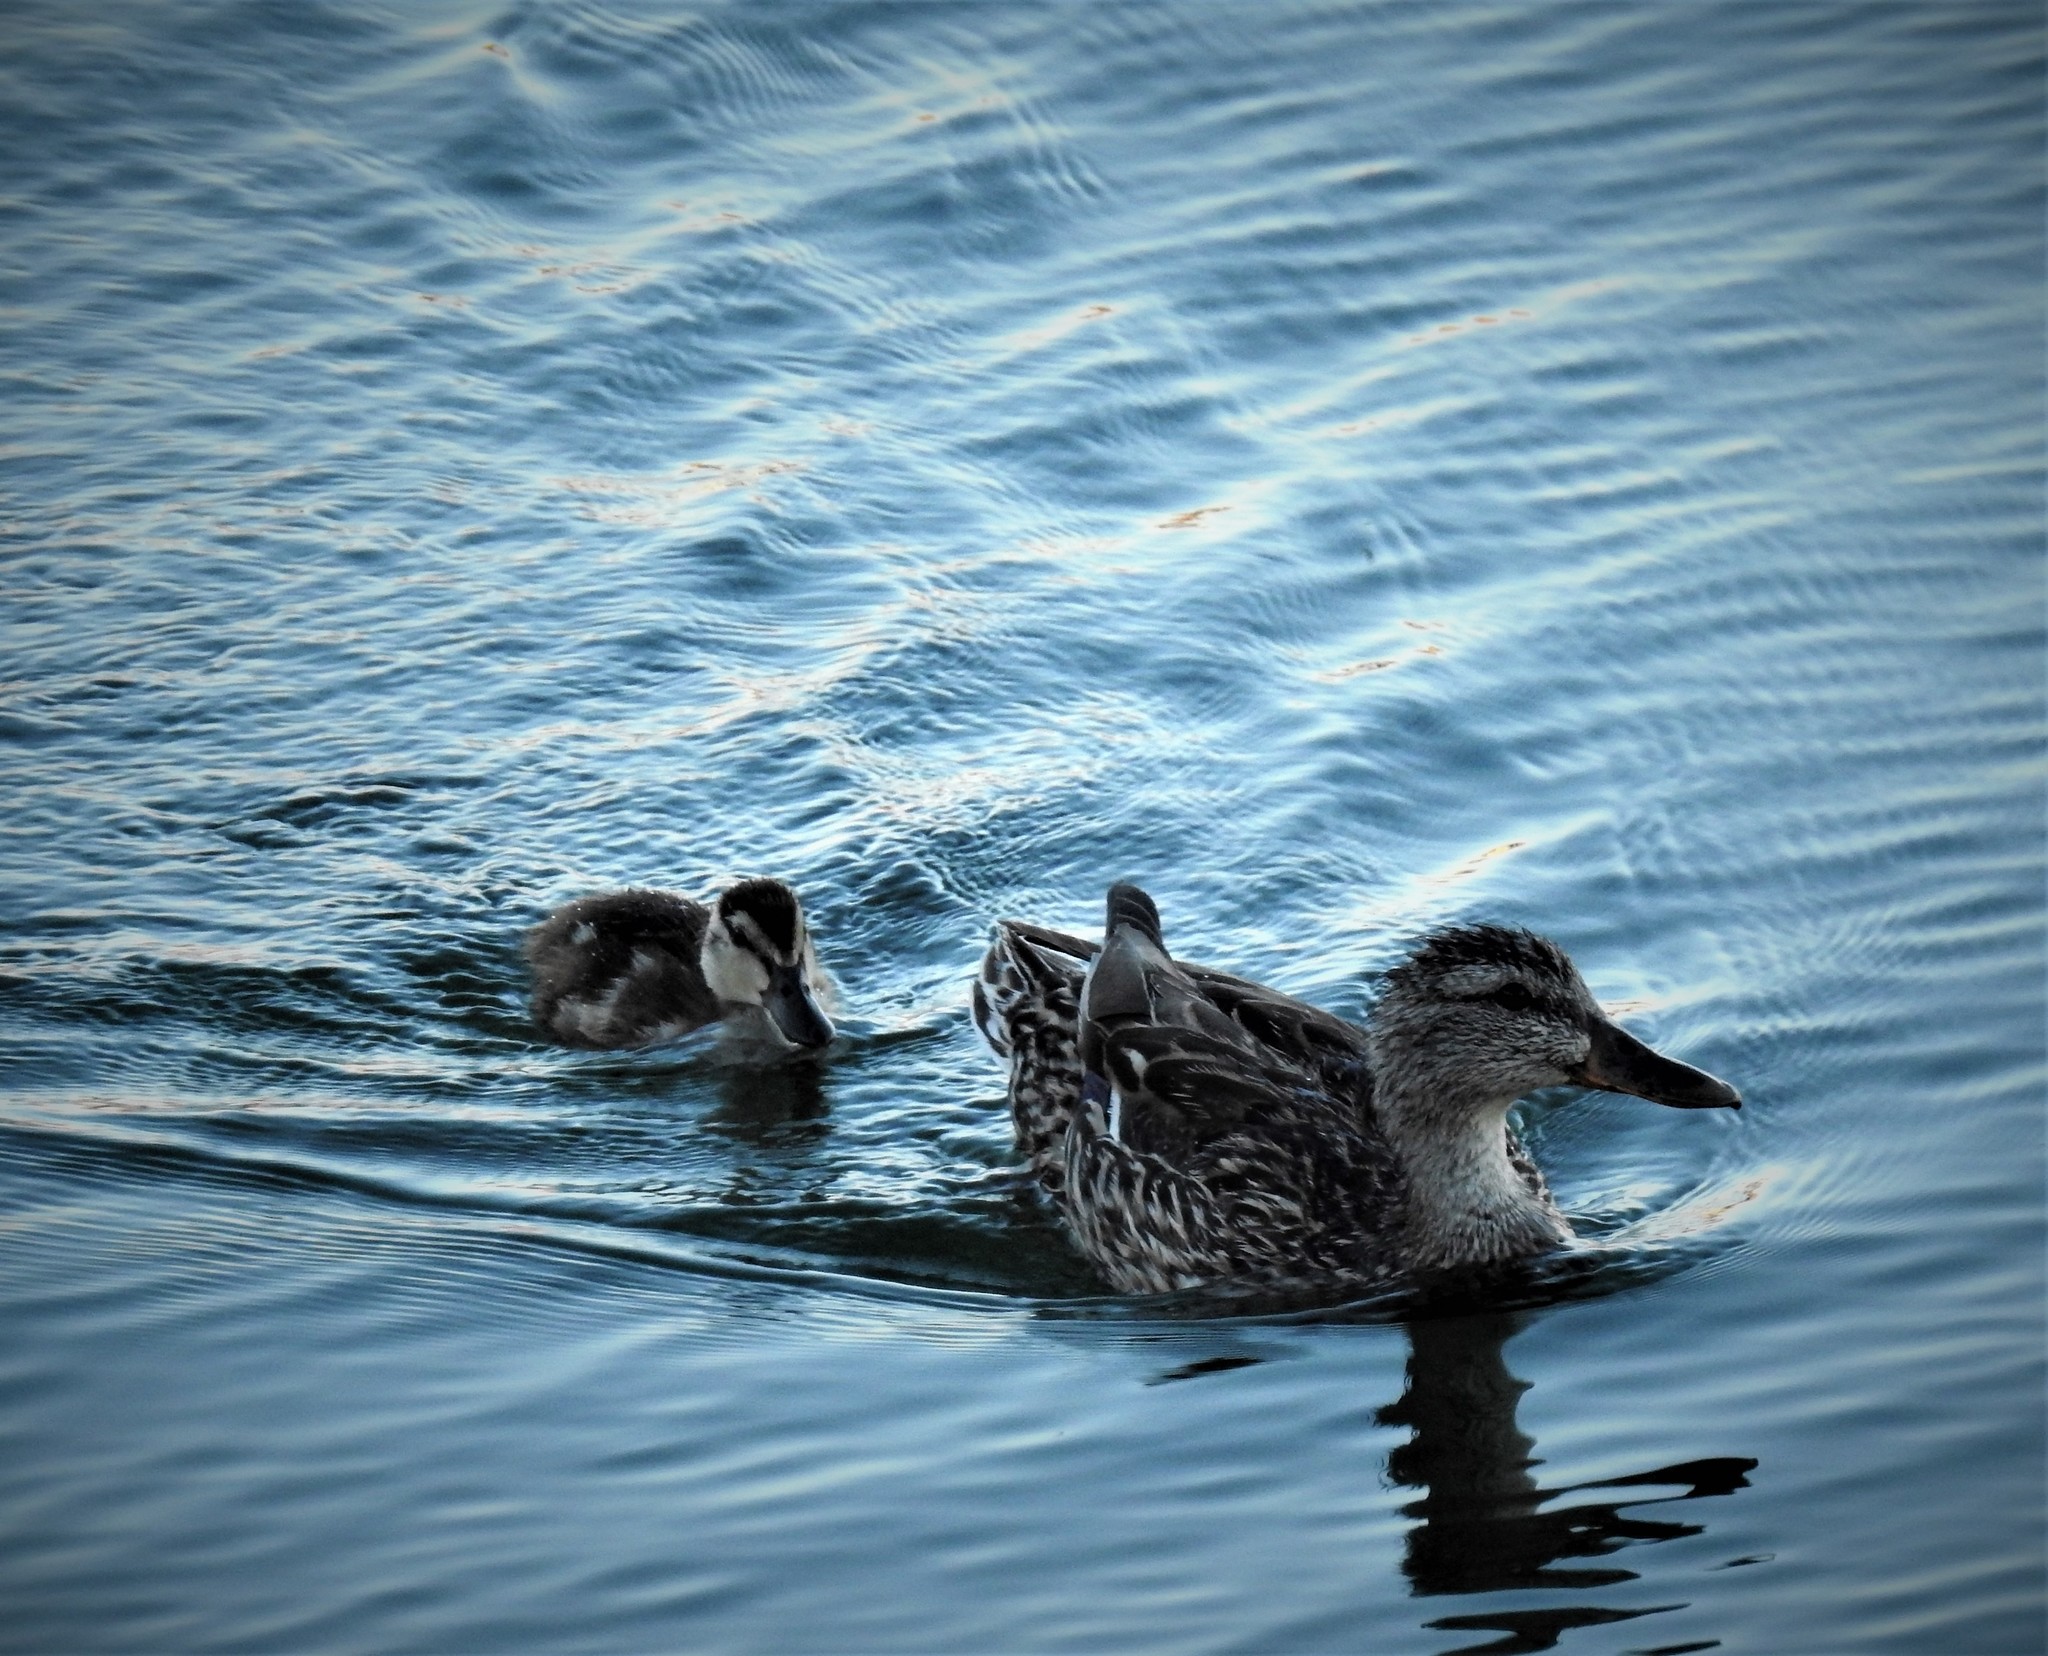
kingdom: Animalia
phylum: Chordata
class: Aves
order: Anseriformes
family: Anatidae
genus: Anas
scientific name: Anas platyrhynchos
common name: Mallard
